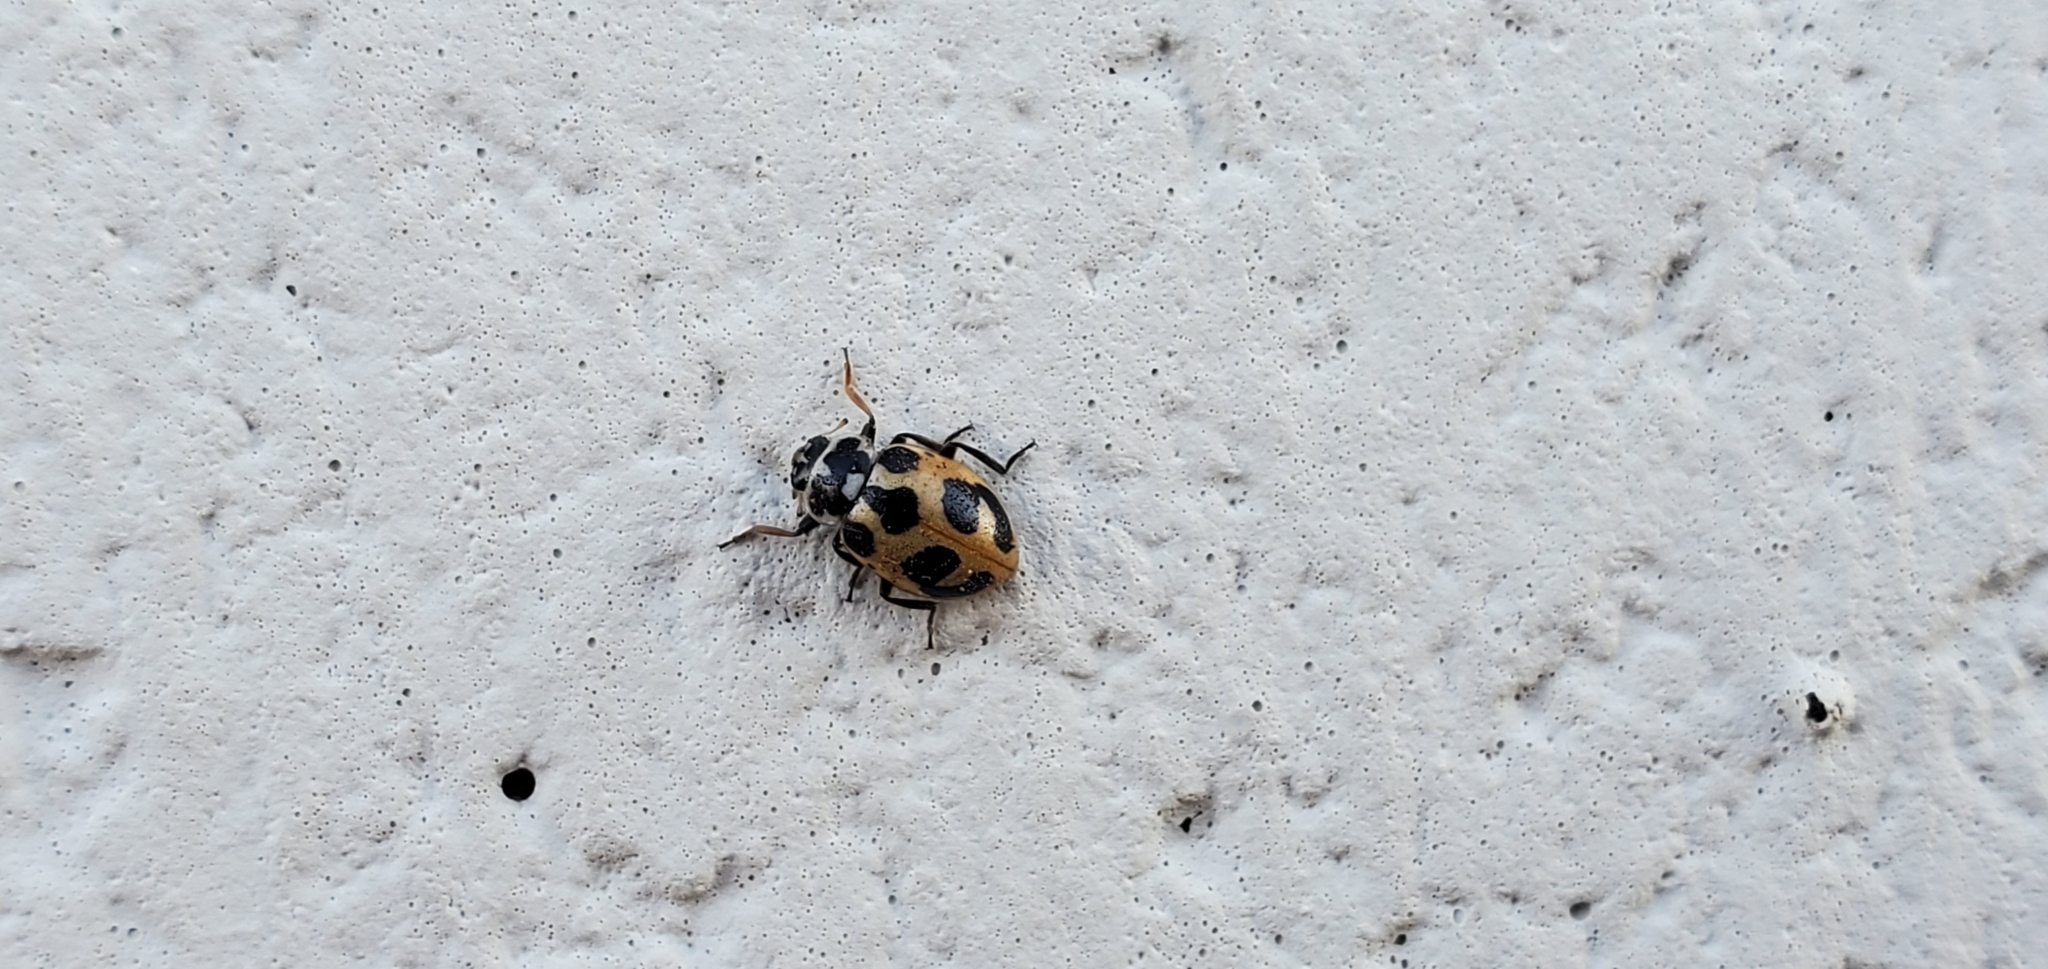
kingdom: Animalia
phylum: Arthropoda
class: Insecta
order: Coleoptera
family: Coccinellidae
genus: Hippodamia
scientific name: Hippodamia parenthesis
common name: Parenthesis lady beetle
